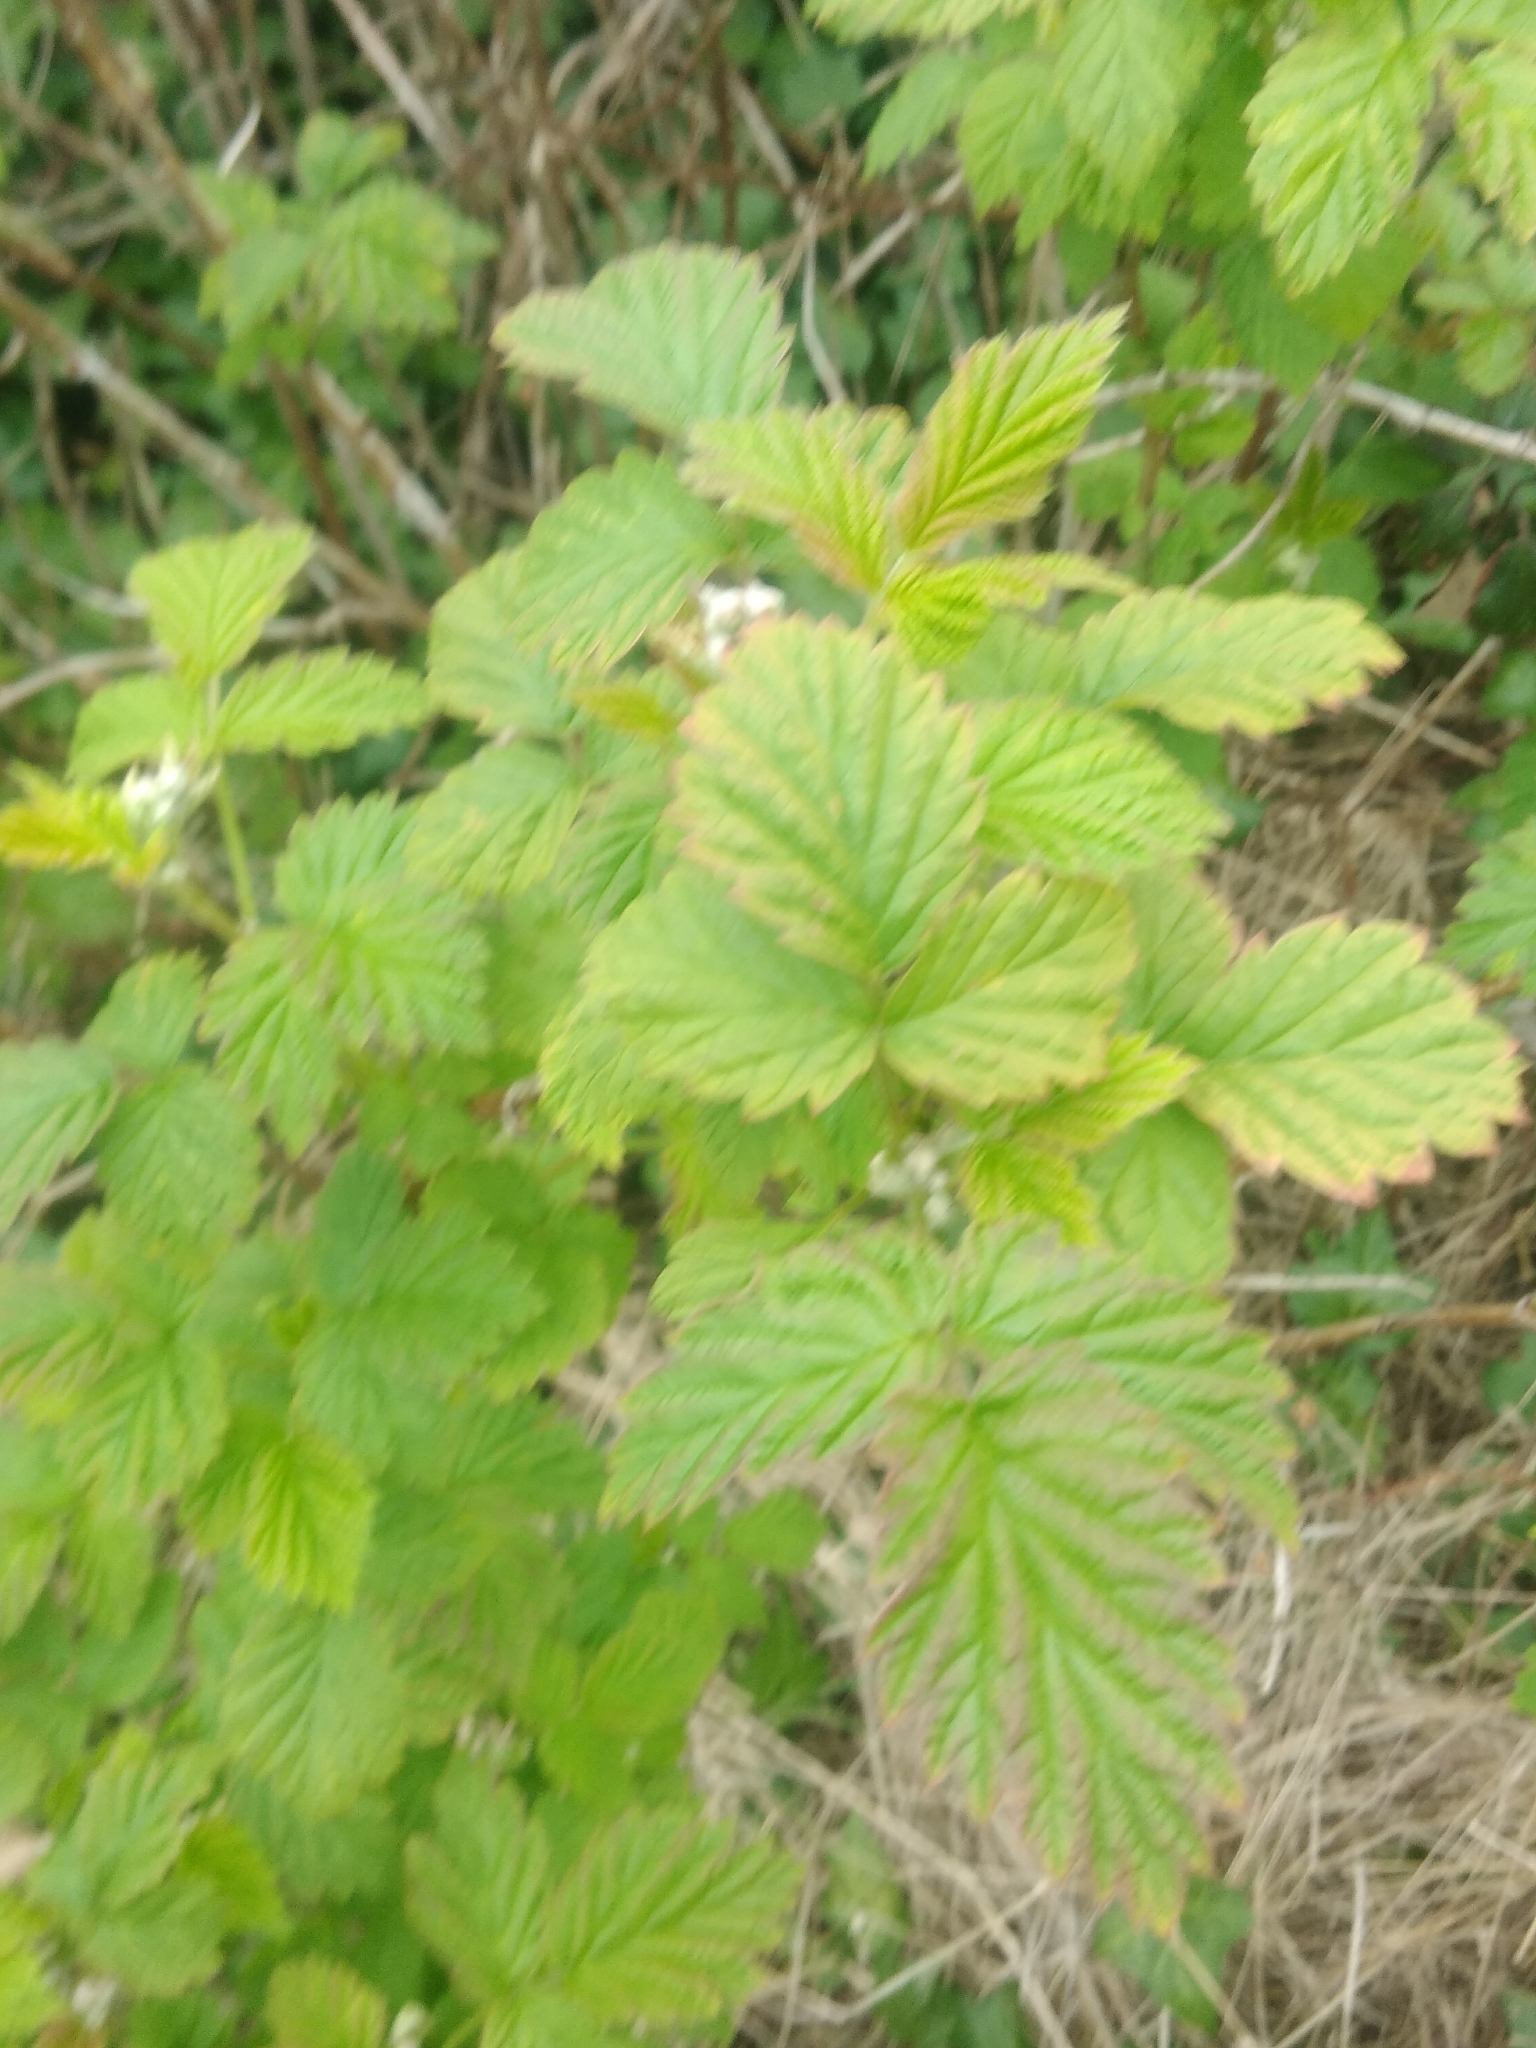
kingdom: Plantae
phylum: Tracheophyta
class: Magnoliopsida
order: Rosales
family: Rosaceae
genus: Rubus
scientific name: Rubus idaeus
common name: Raspberry
